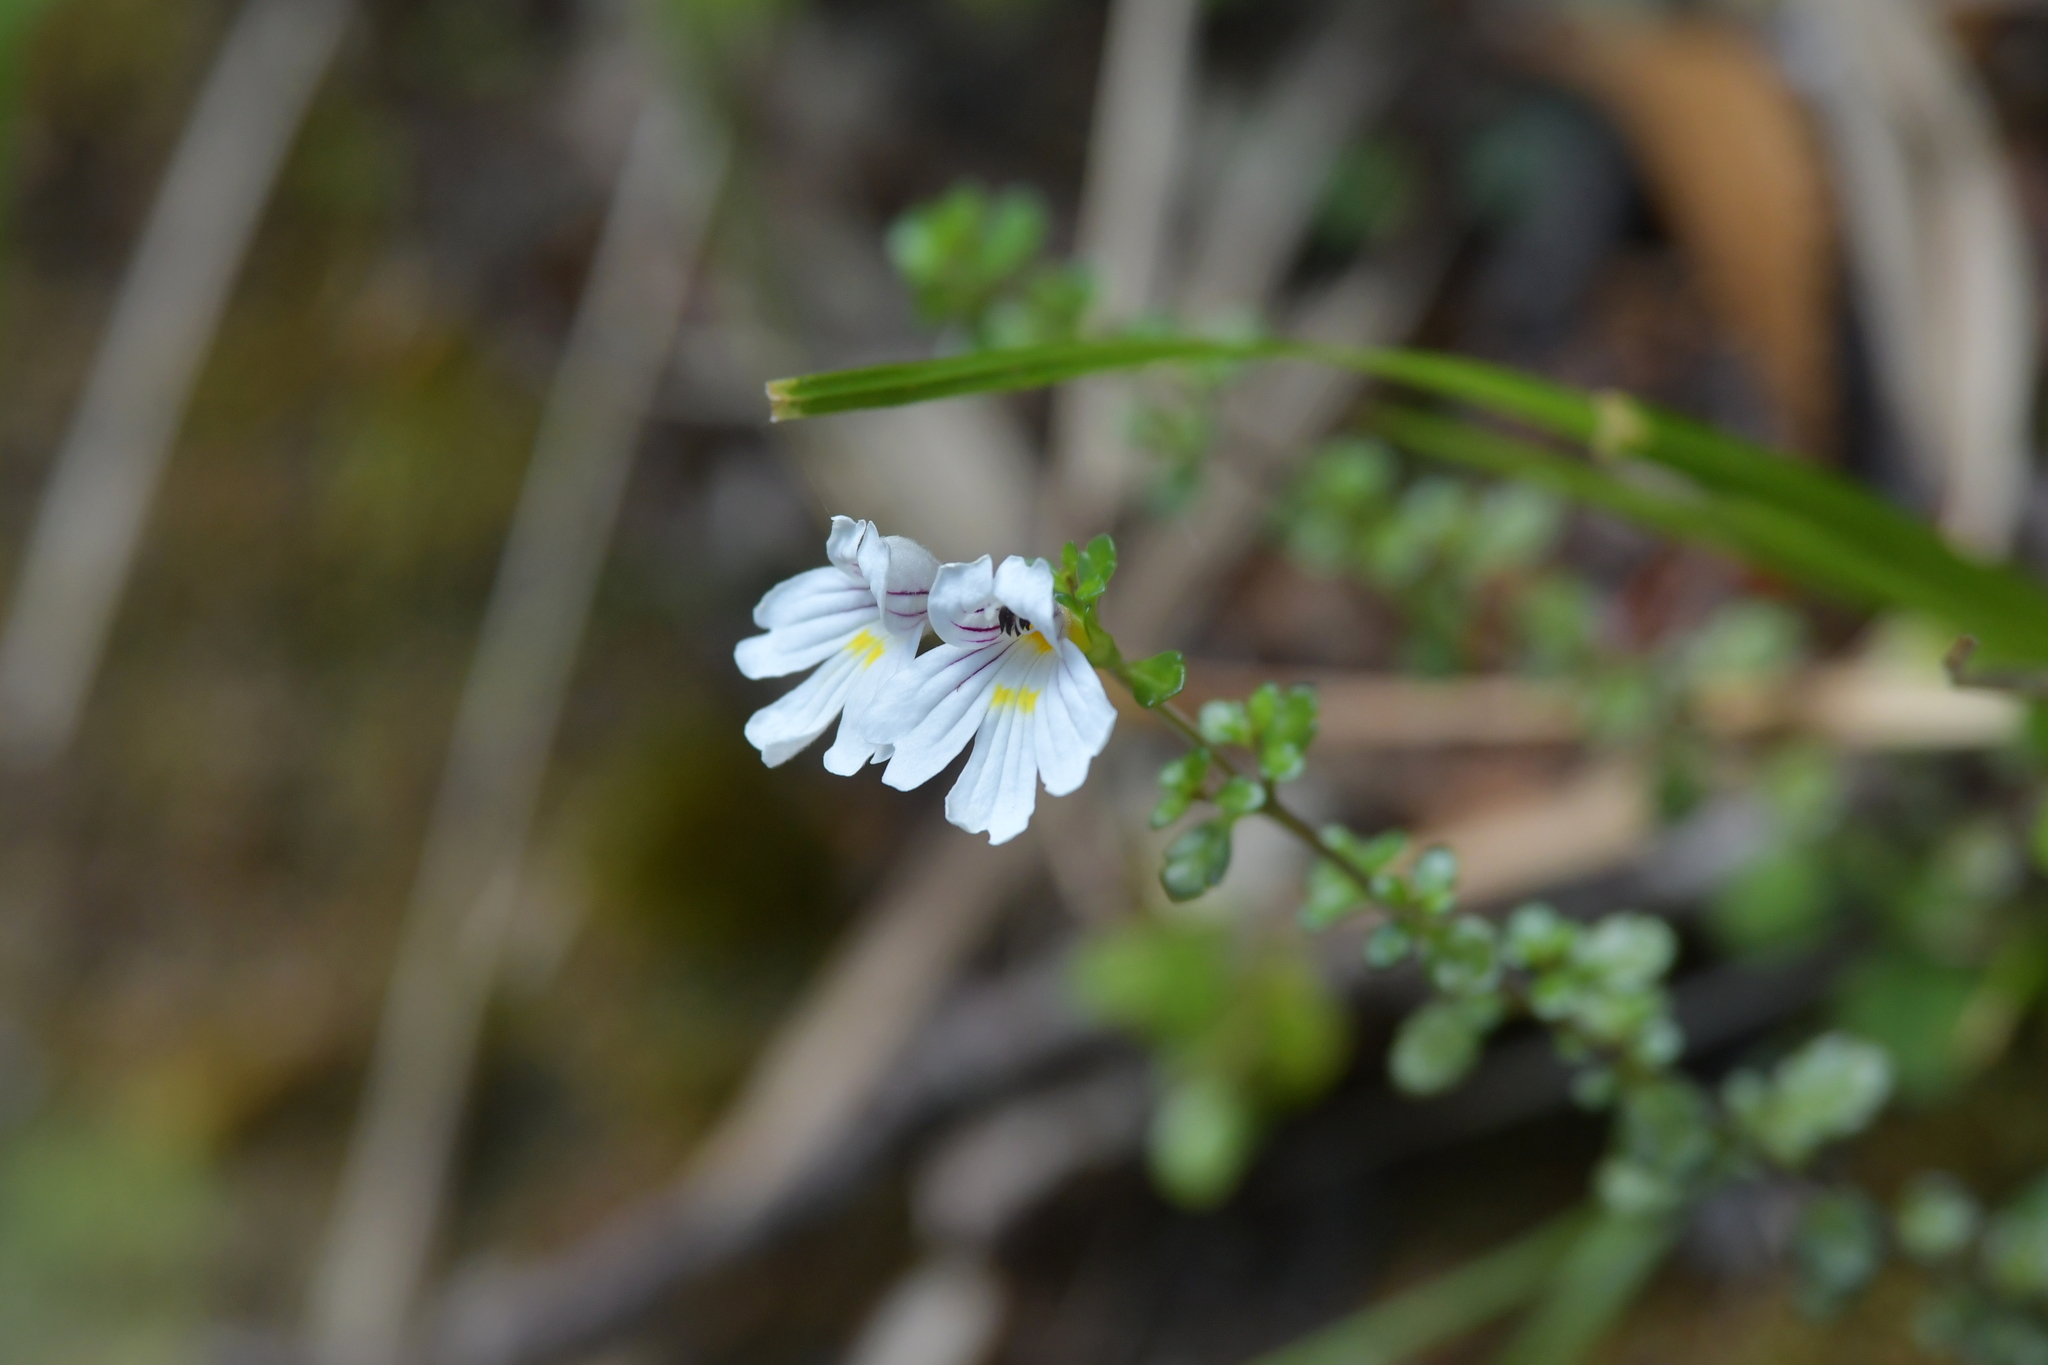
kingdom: Plantae
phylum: Tracheophyta
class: Magnoliopsida
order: Lamiales
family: Orobanchaceae
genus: Euphrasia
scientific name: Euphrasia cuneata
